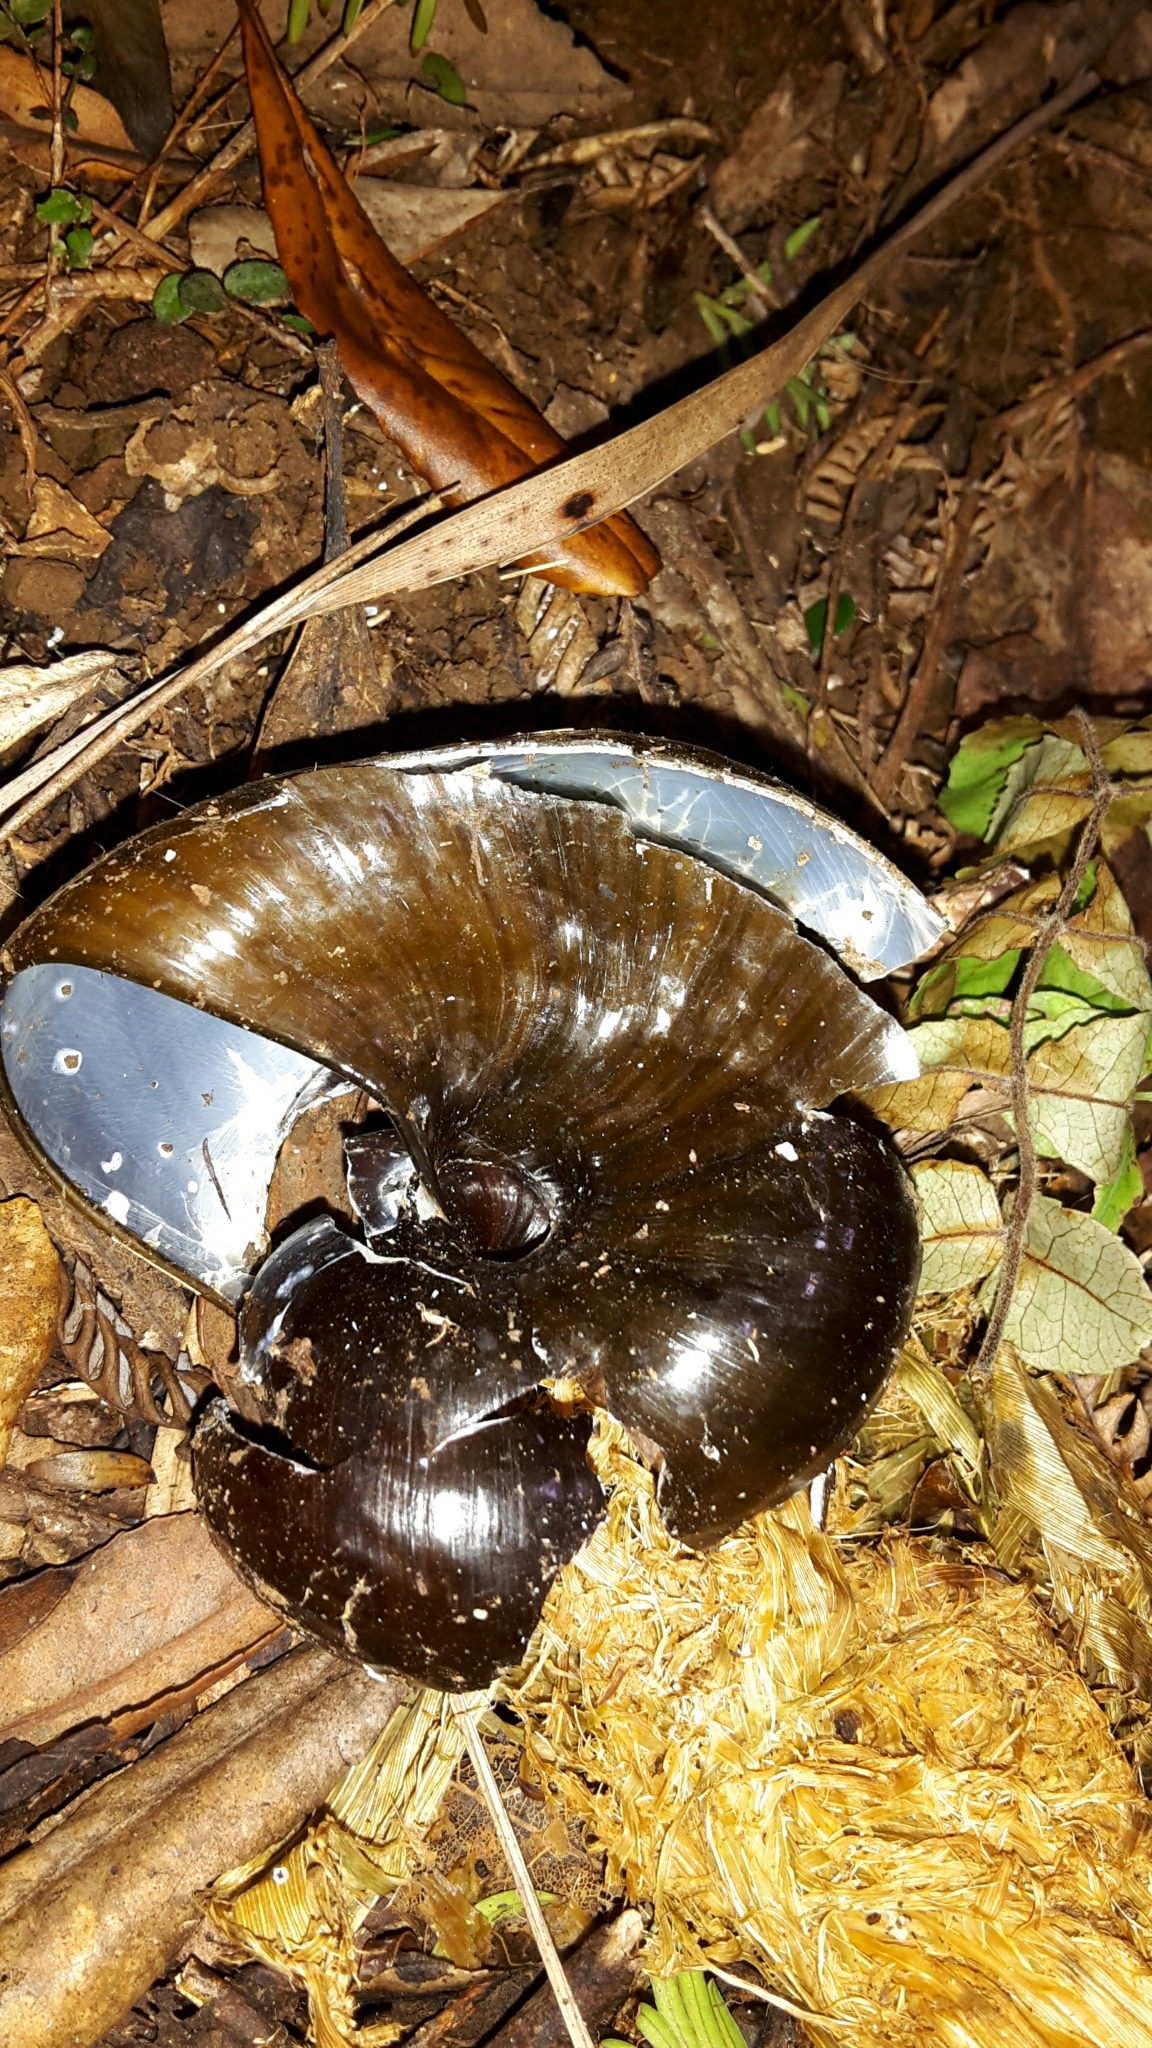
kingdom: Animalia
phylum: Mollusca
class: Gastropoda
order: Stylommatophora
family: Rhytididae
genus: Paryphanta
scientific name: Paryphanta busbyi
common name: Kauri snail
